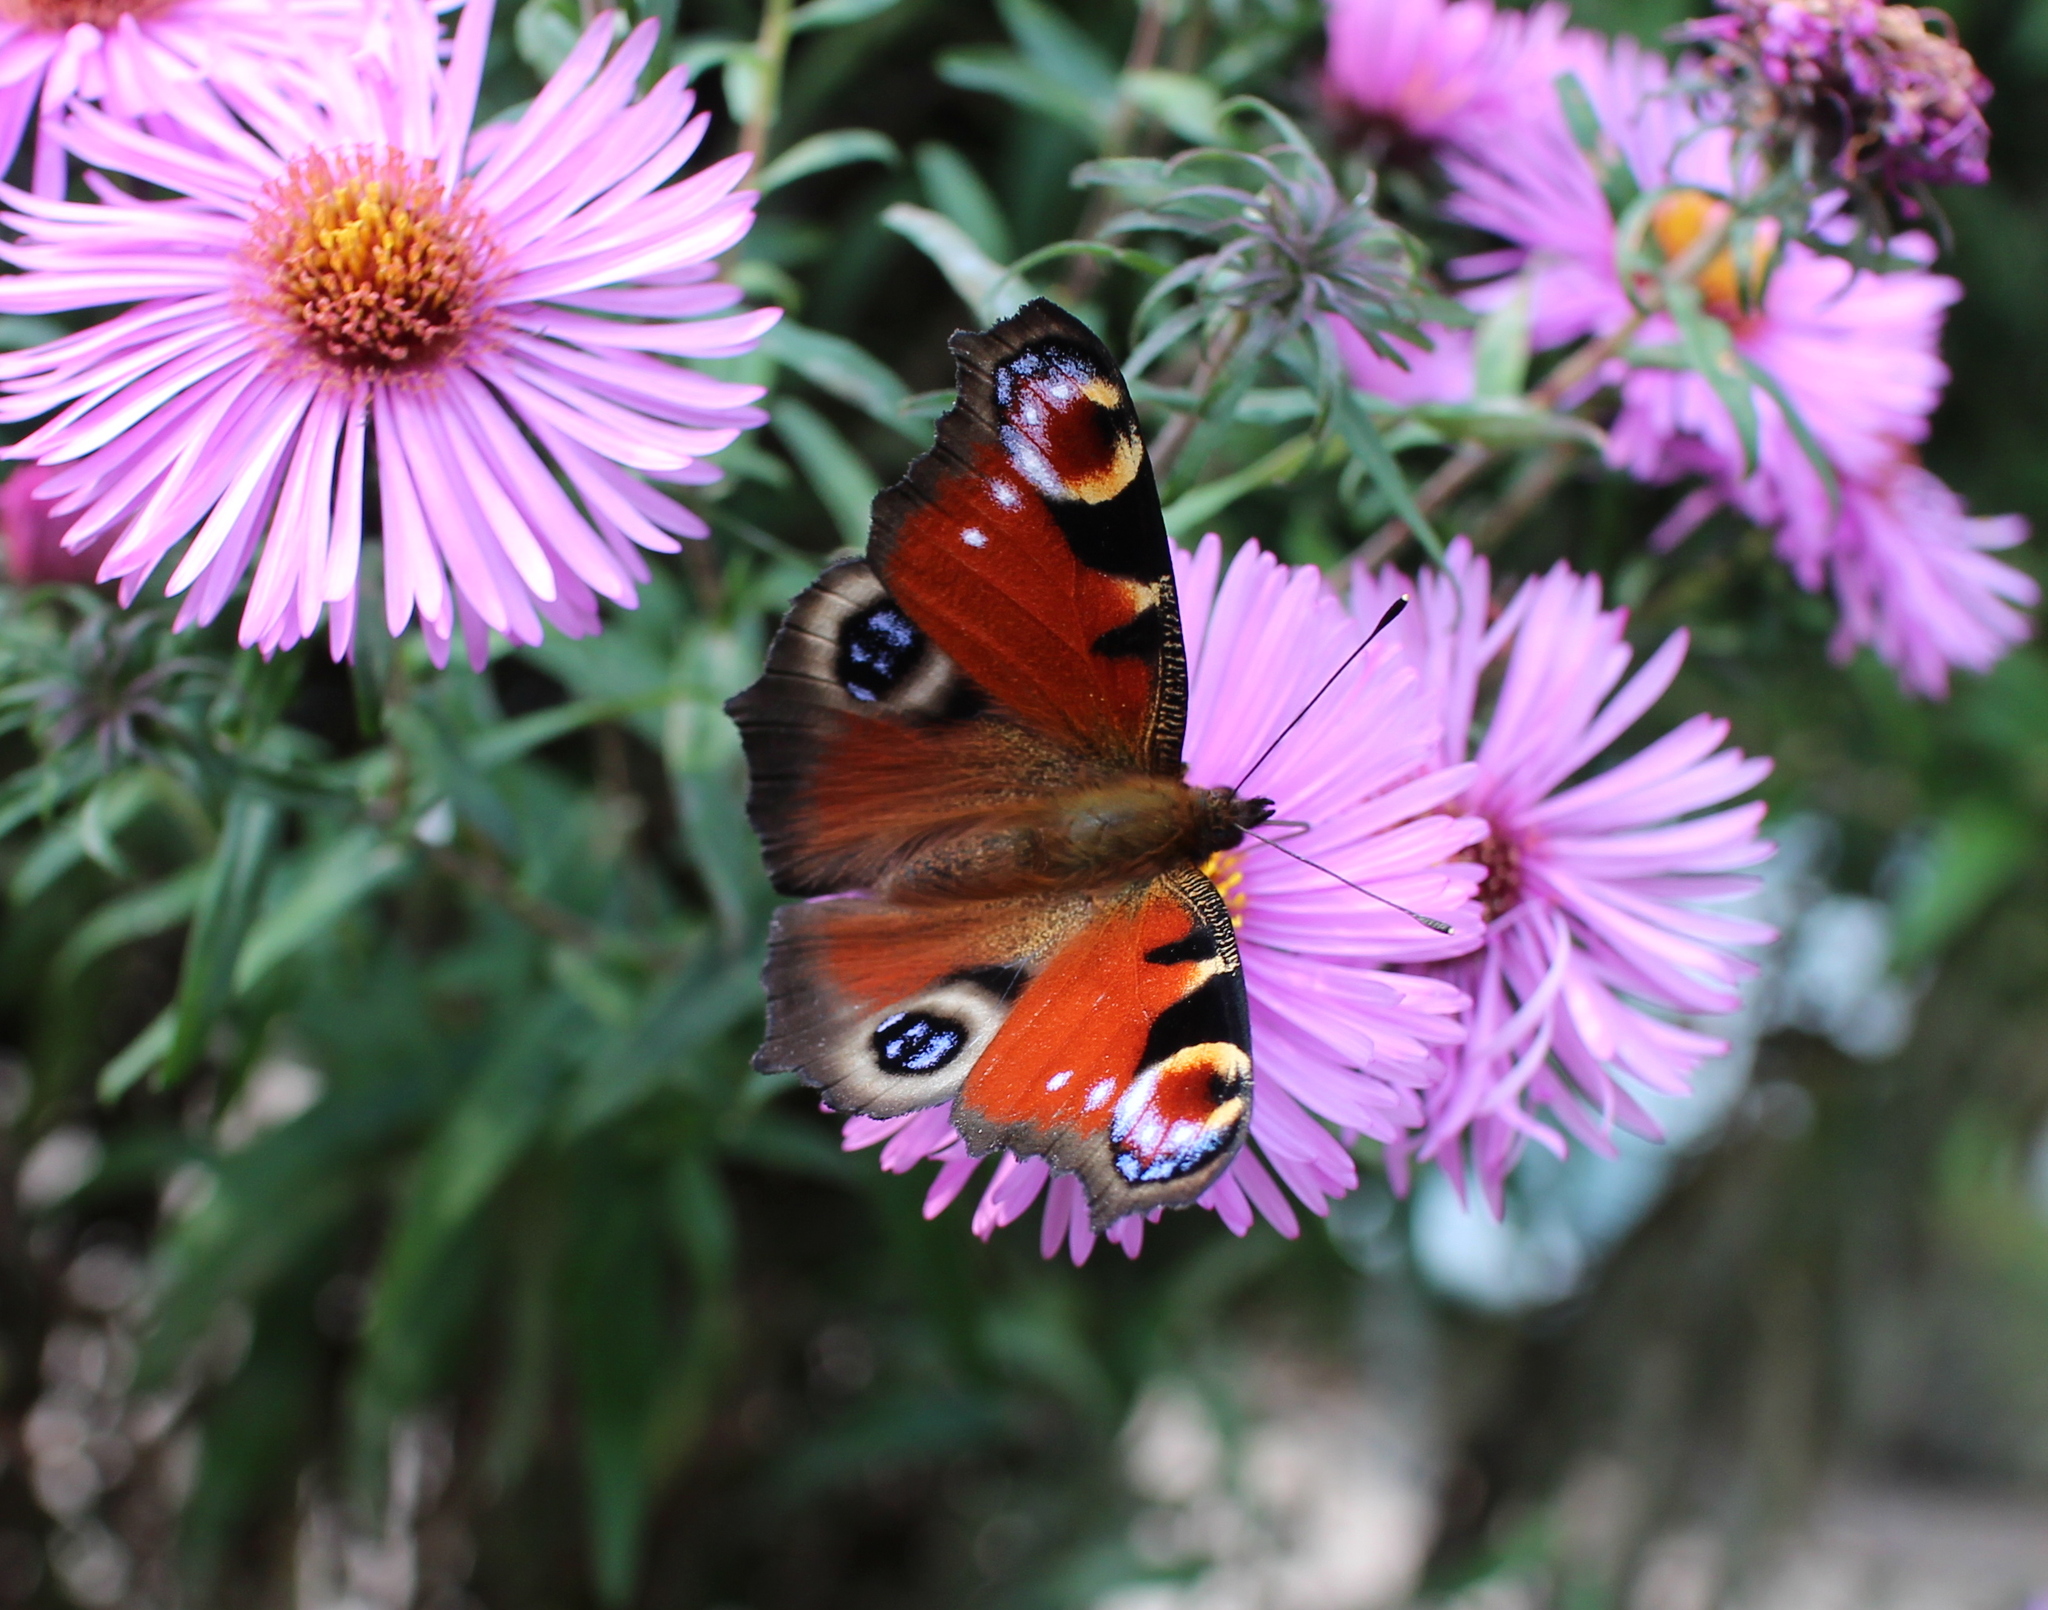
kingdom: Animalia
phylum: Arthropoda
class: Insecta
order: Lepidoptera
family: Nymphalidae
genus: Aglais
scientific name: Aglais io
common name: Peacock
